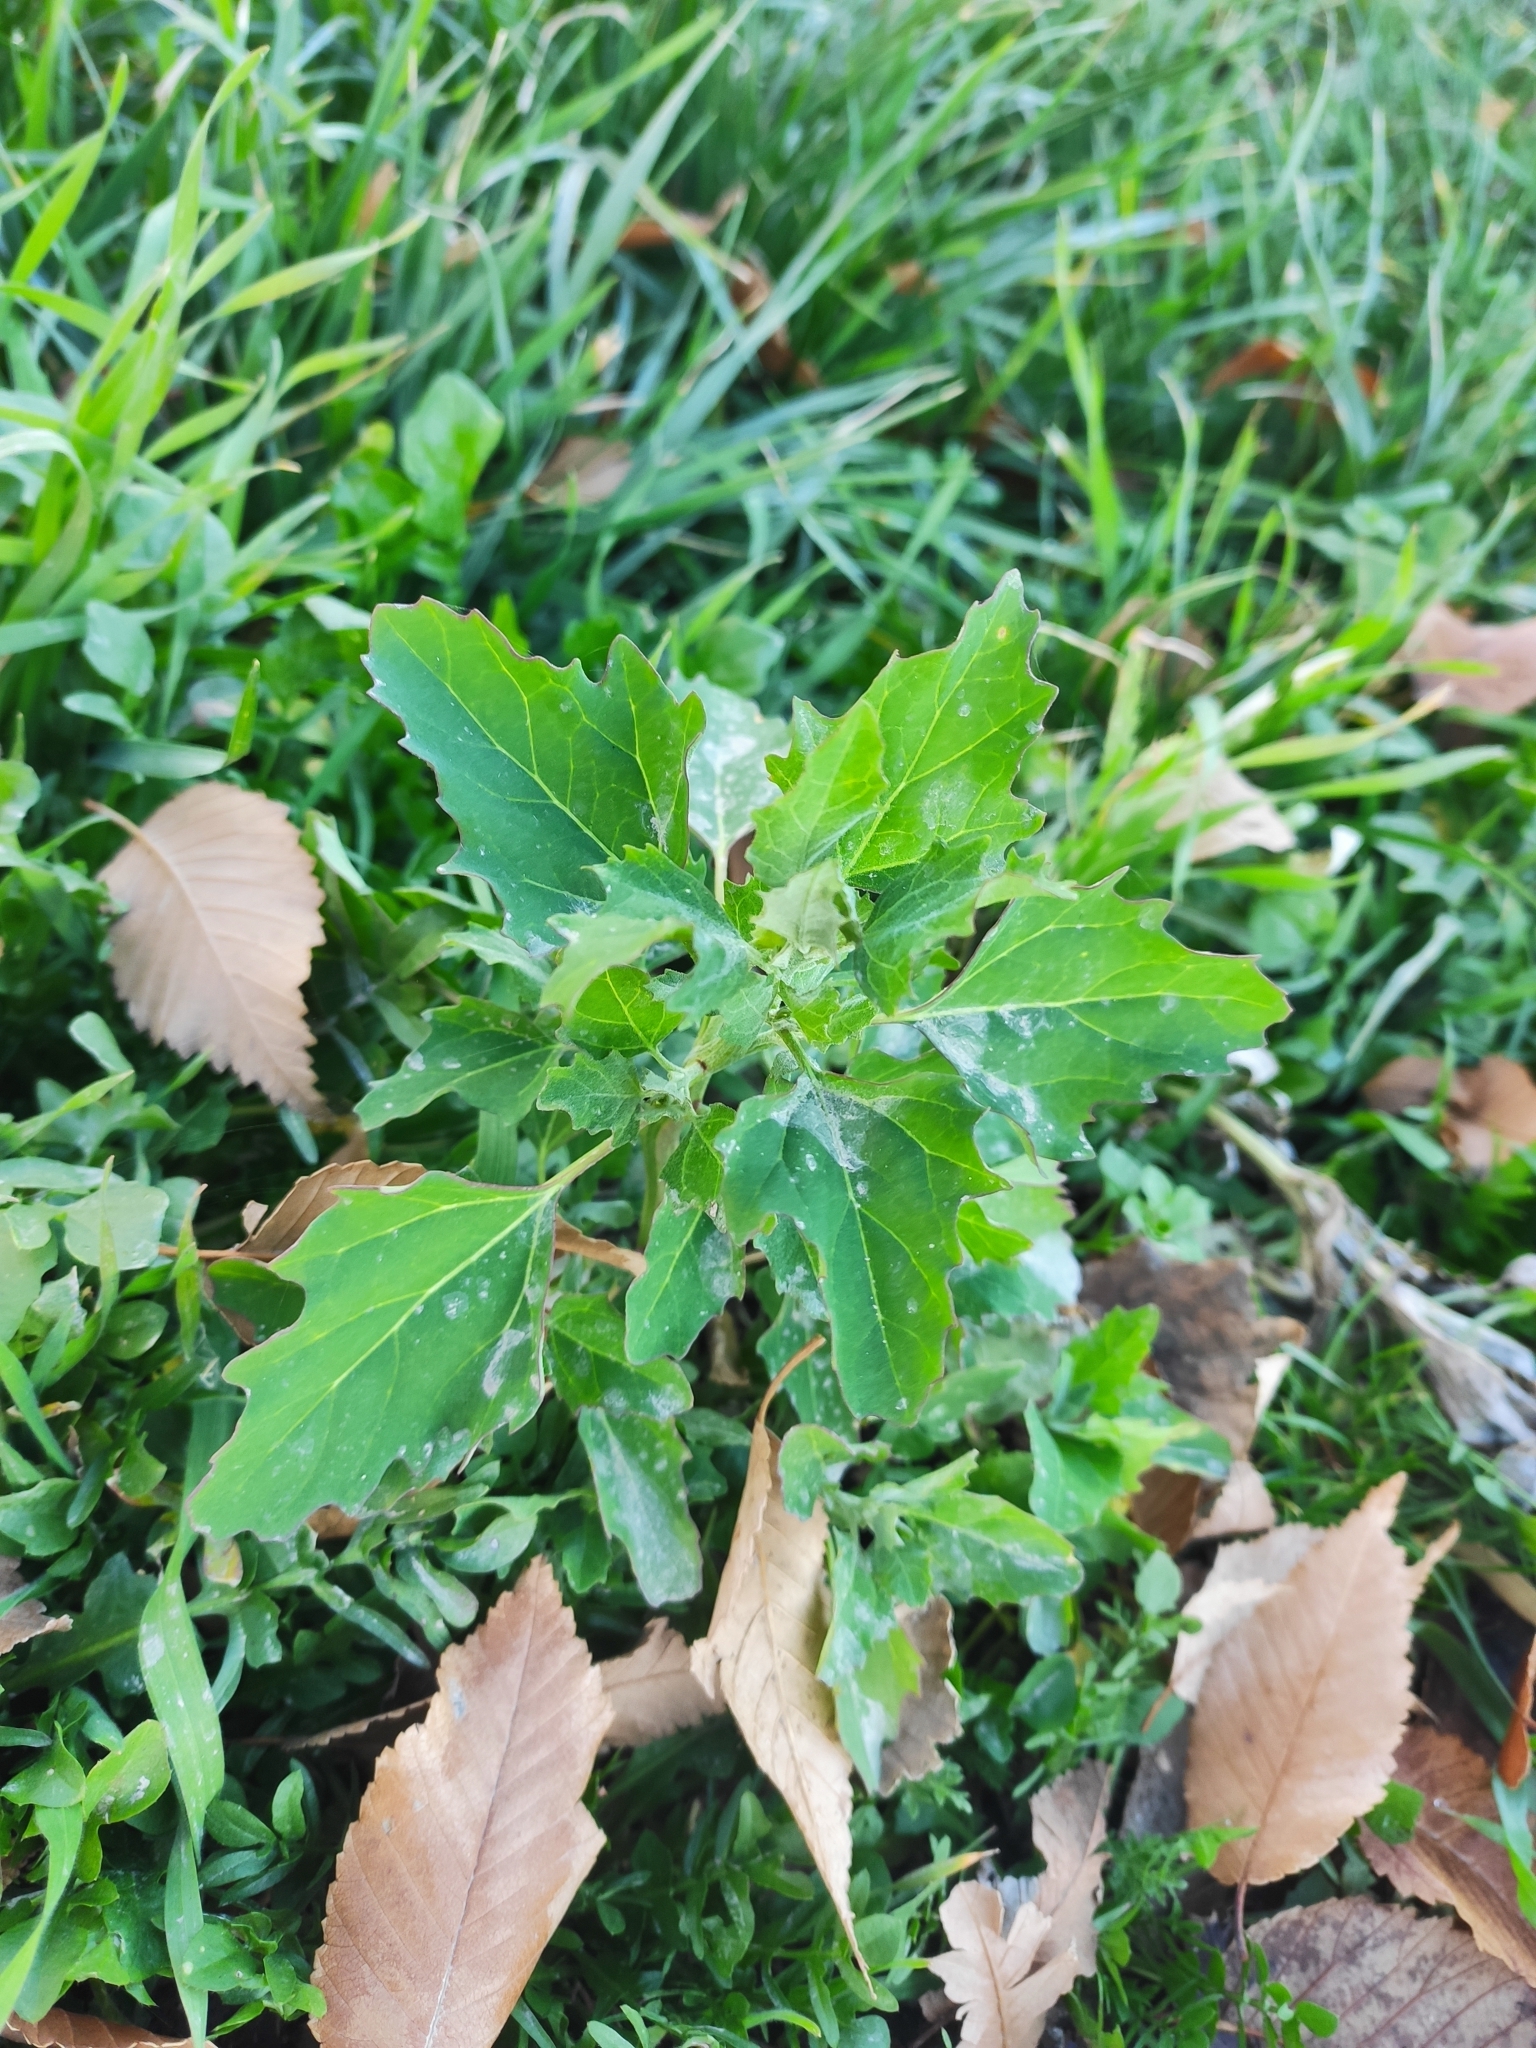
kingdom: Plantae
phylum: Tracheophyta
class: Magnoliopsida
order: Caryophyllales
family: Amaranthaceae
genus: Chenopodium
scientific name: Chenopodium album
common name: Fat-hen
